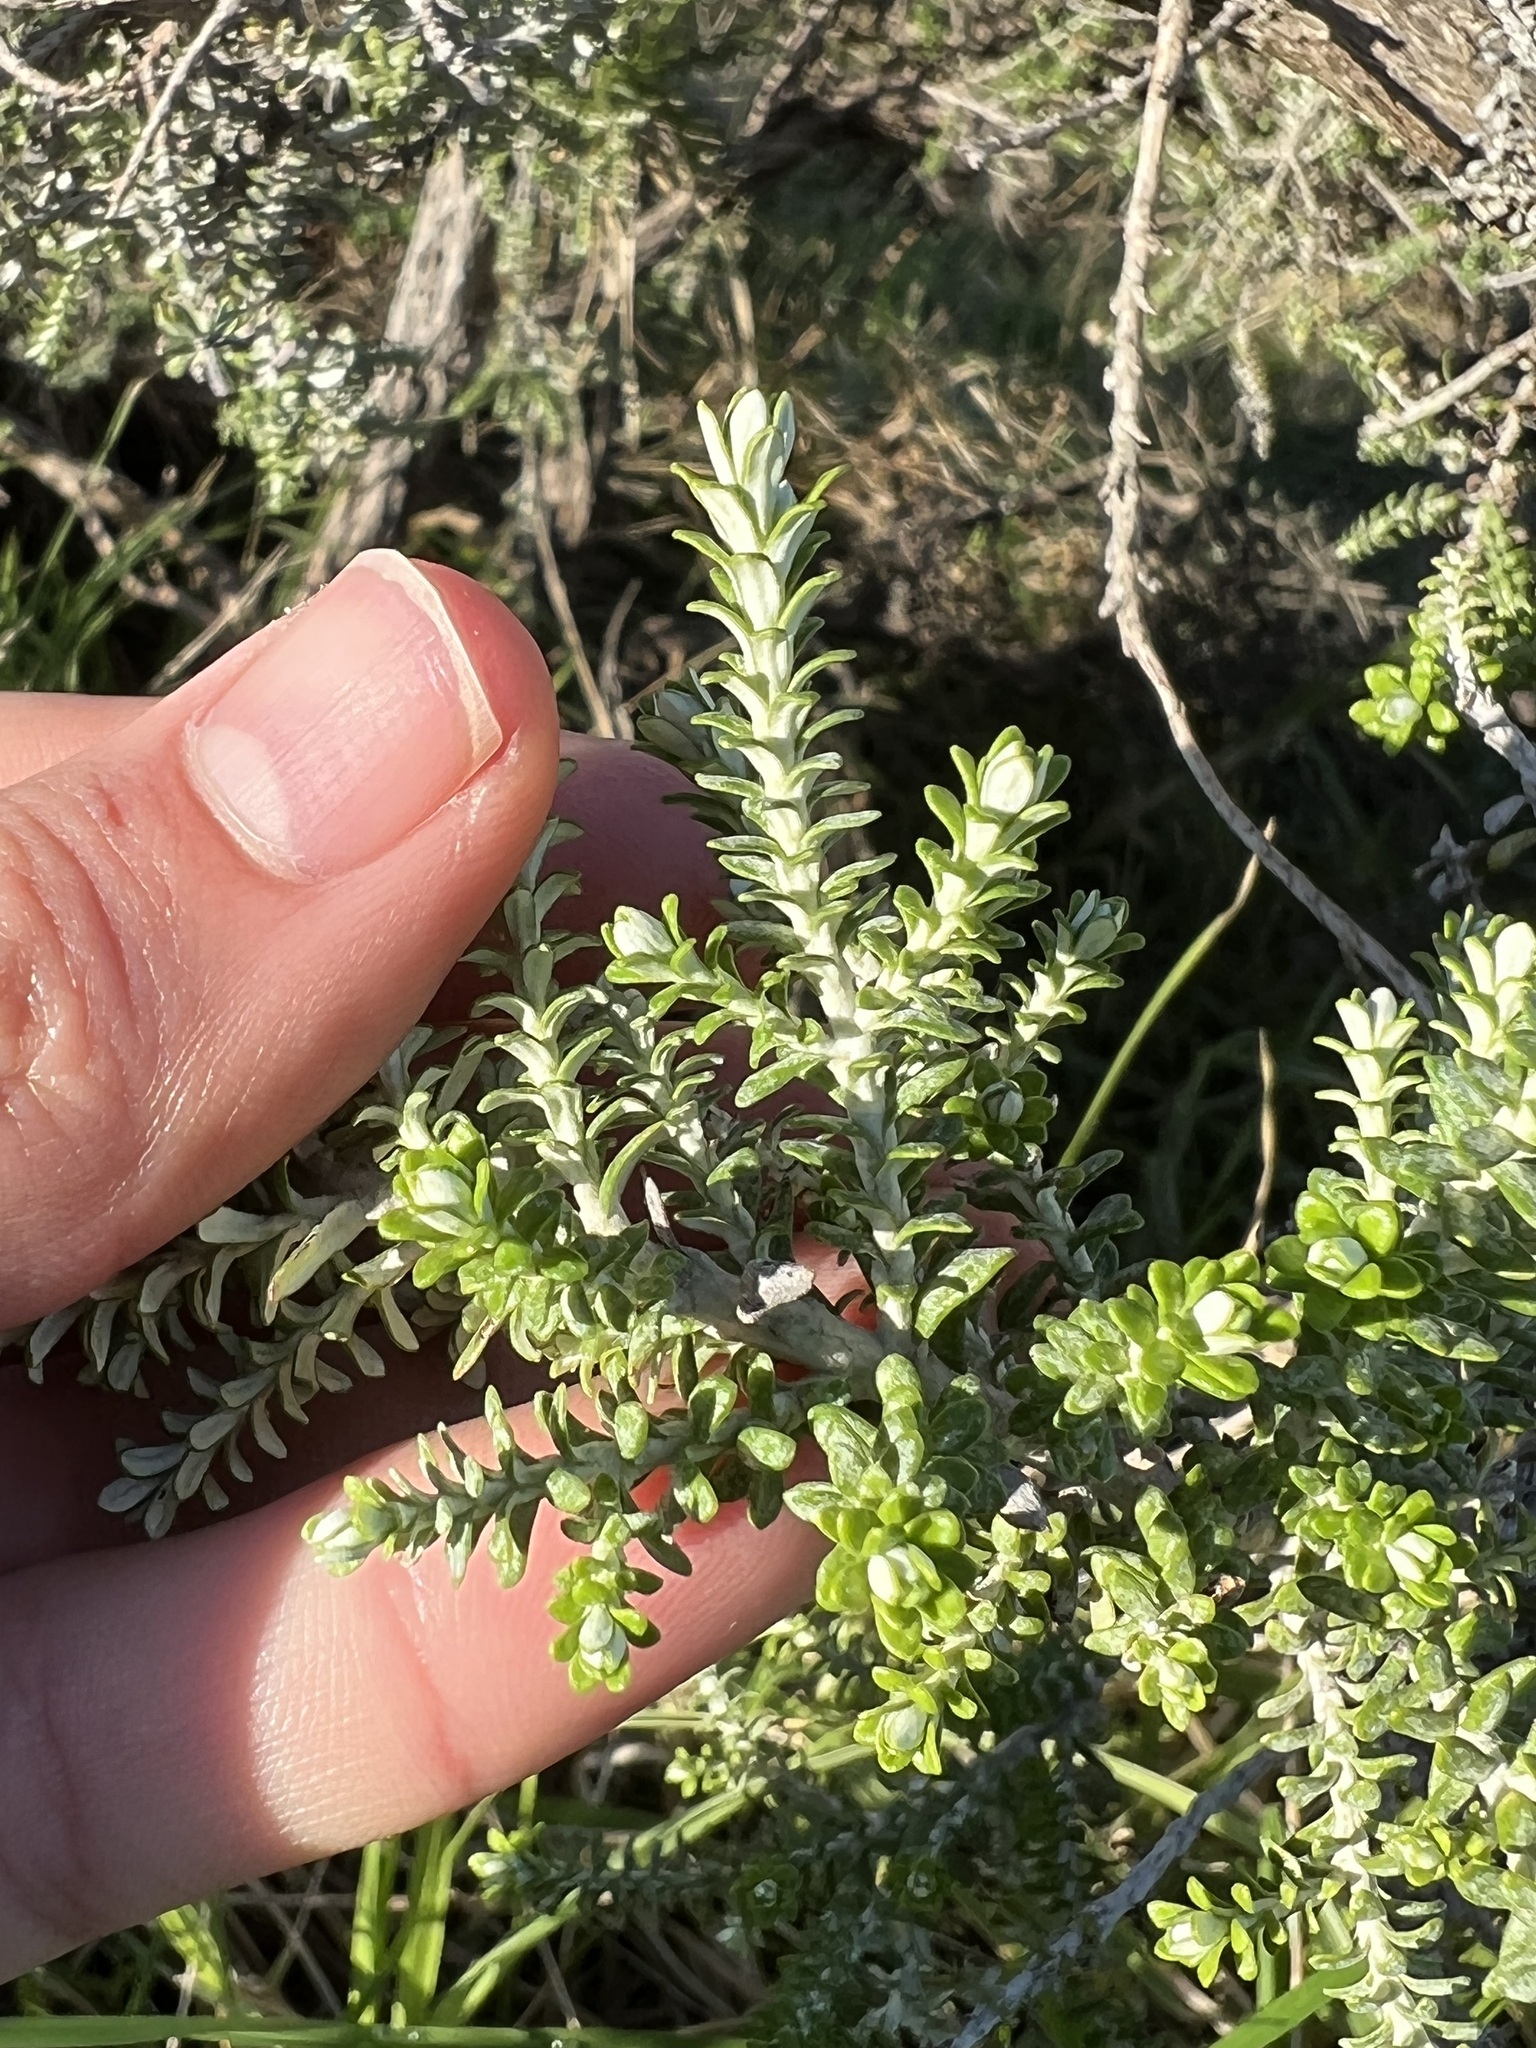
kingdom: Plantae
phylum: Tracheophyta
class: Magnoliopsida
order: Asterales
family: Asteraceae
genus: Ozothamnus
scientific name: Ozothamnus leptophyllus
